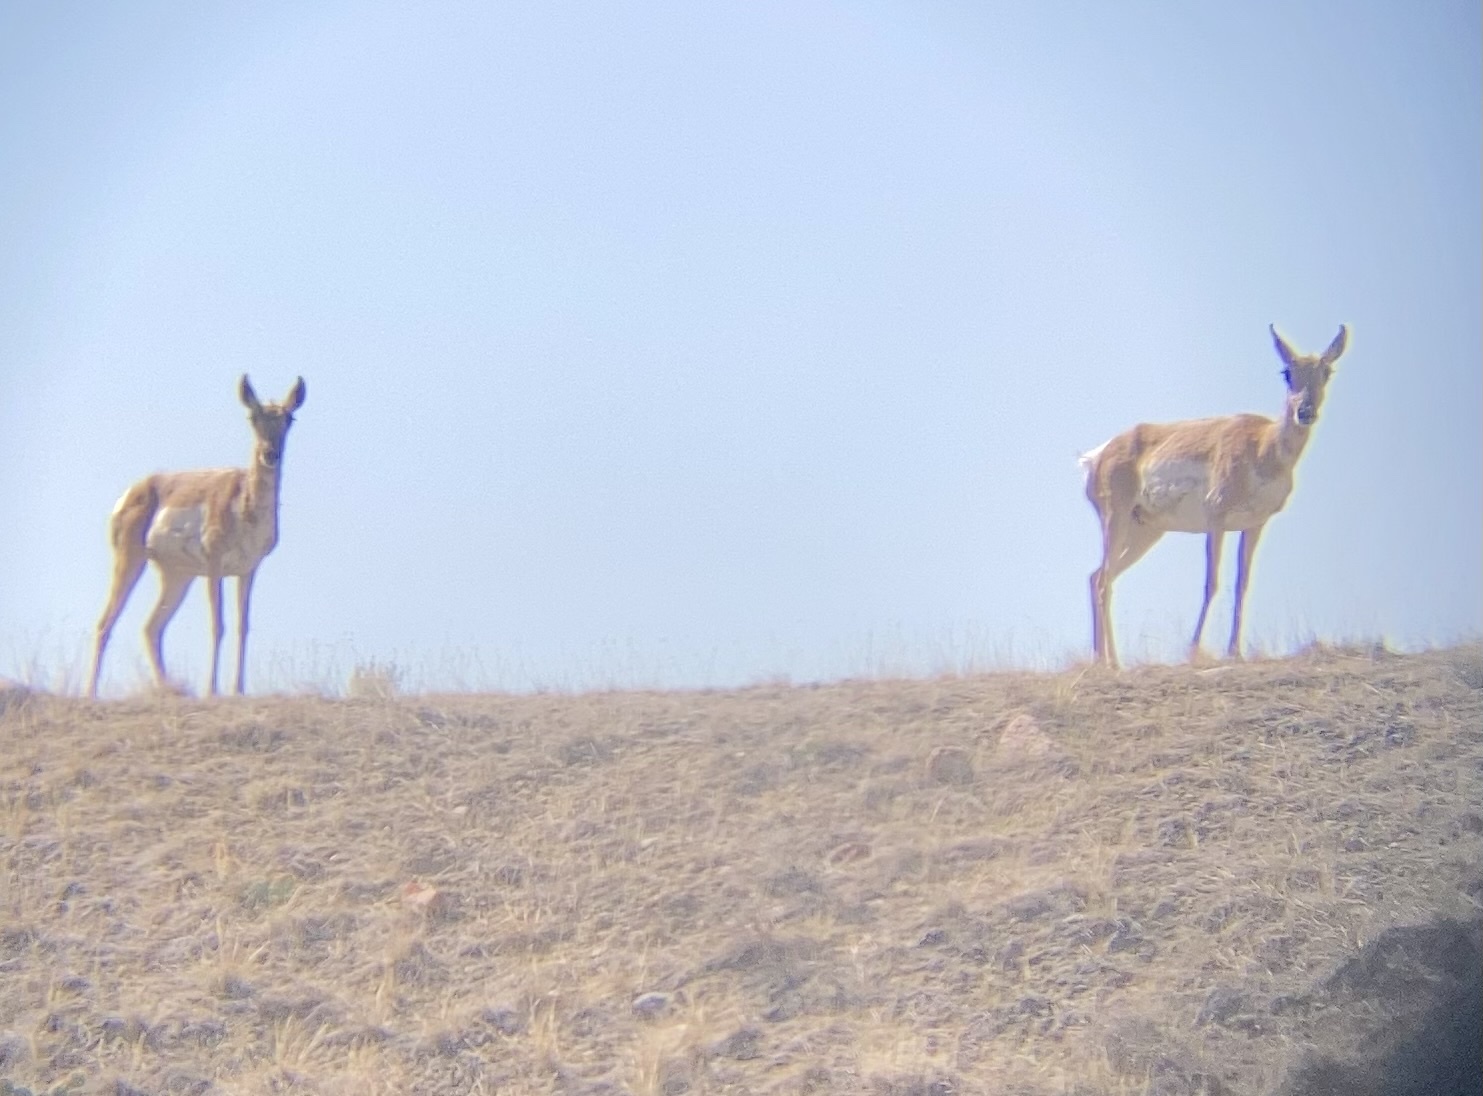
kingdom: Animalia
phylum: Chordata
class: Mammalia
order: Artiodactyla
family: Antilocapridae
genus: Antilocapra
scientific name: Antilocapra americana
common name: Pronghorn
